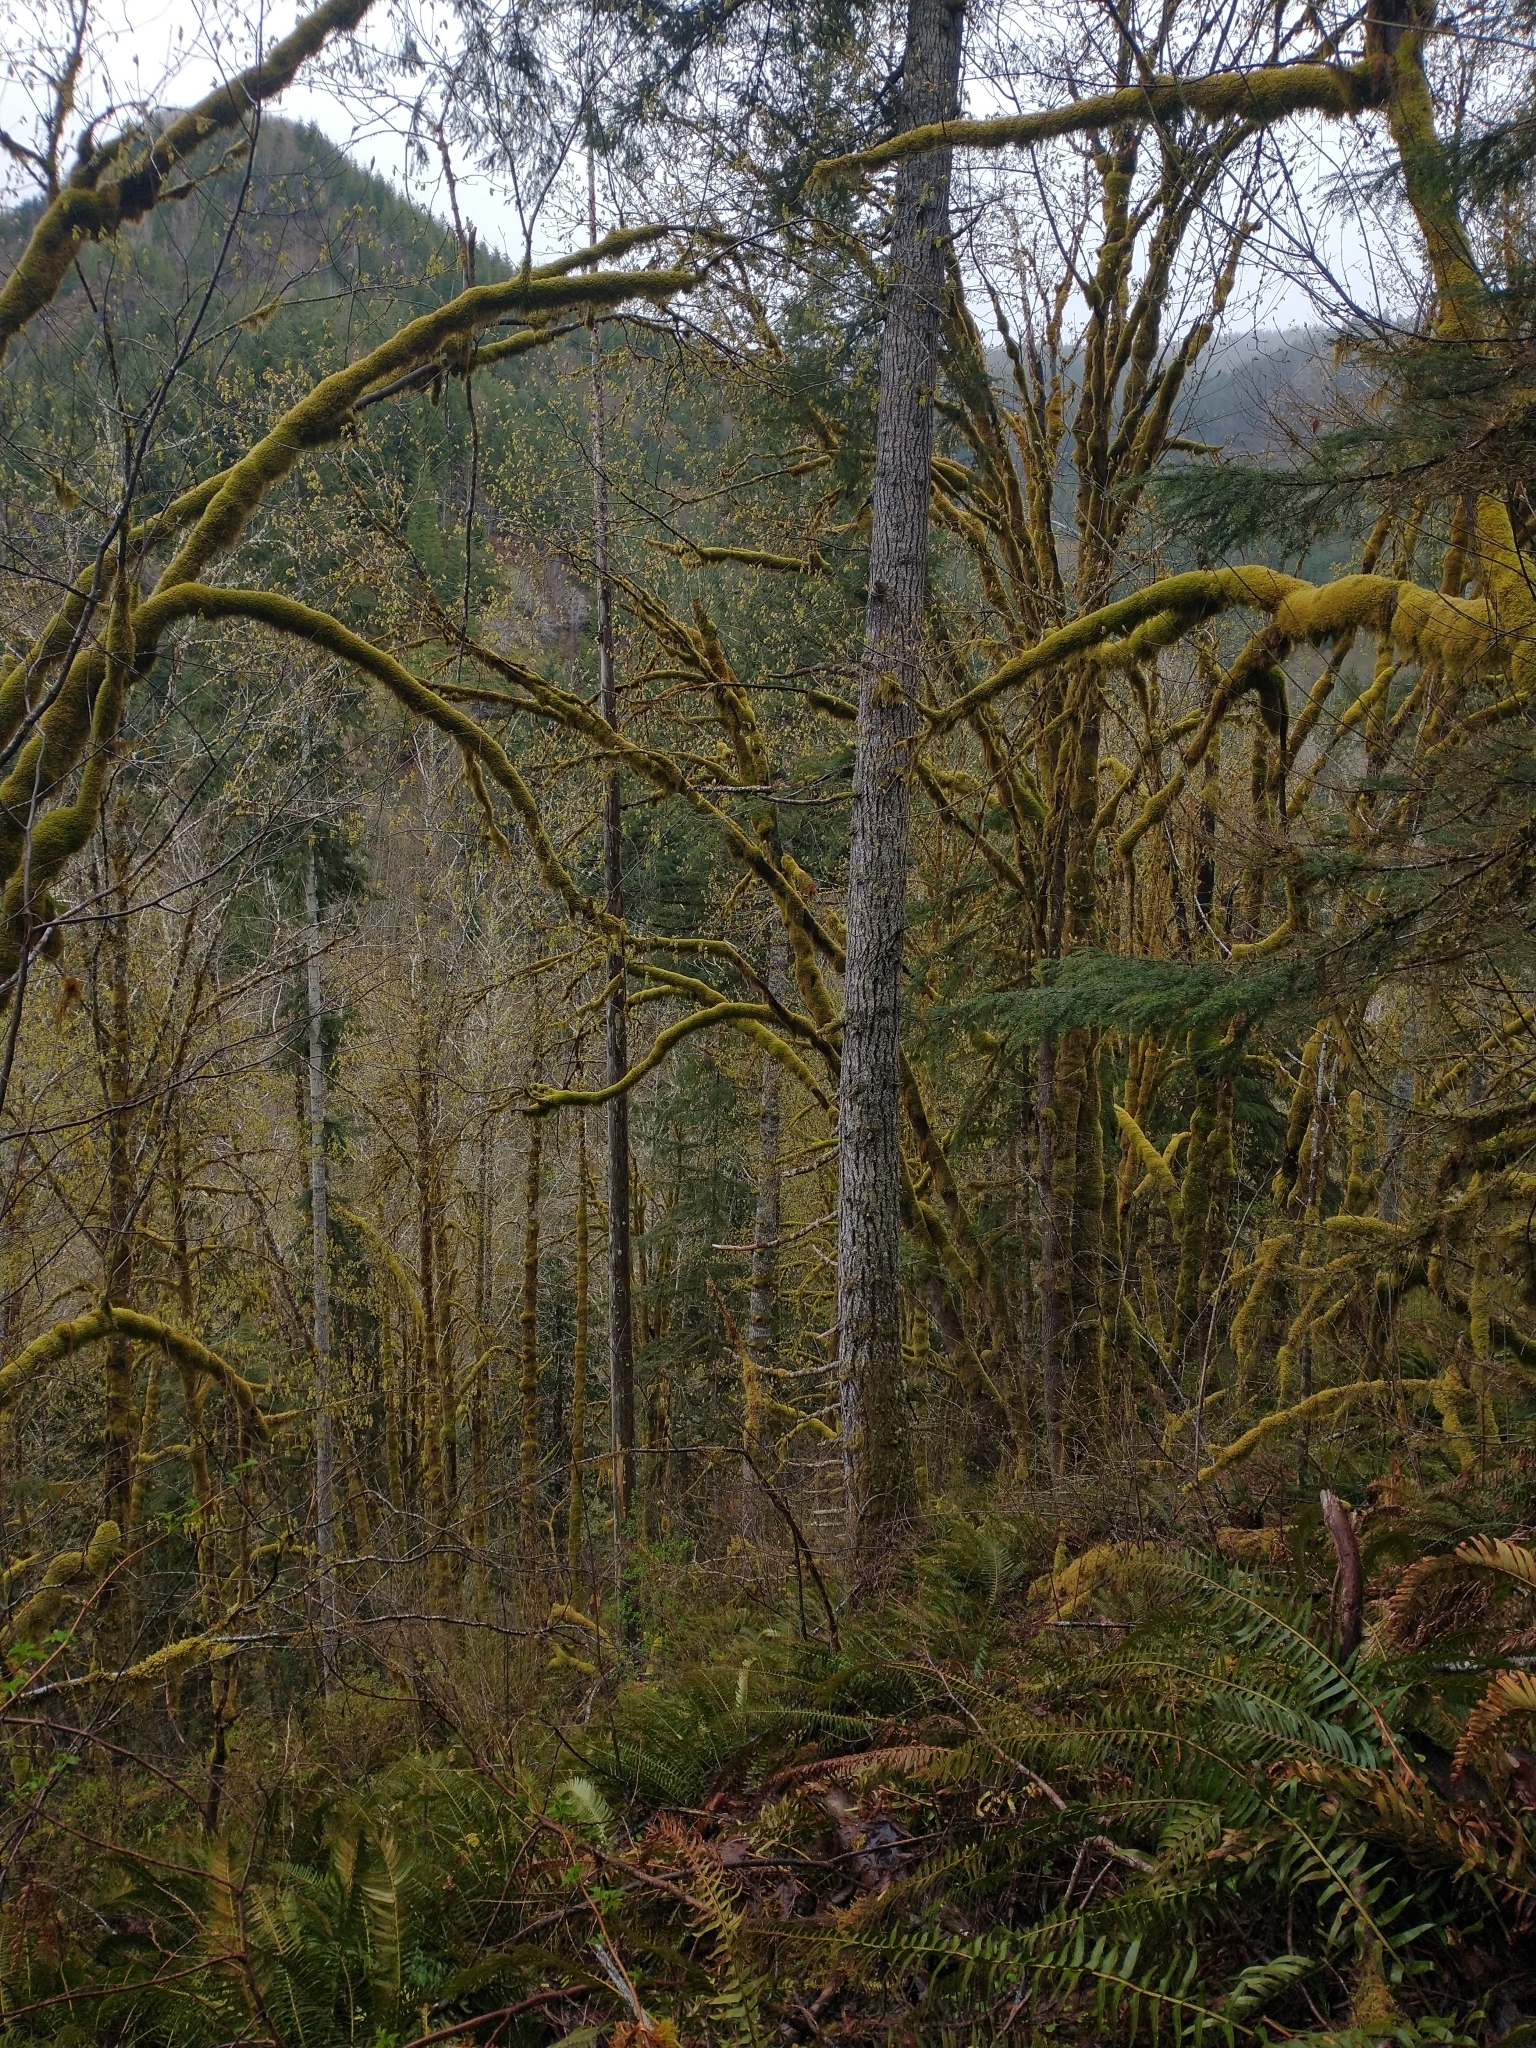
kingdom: Plantae
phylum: Tracheophyta
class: Magnoliopsida
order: Sapindales
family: Sapindaceae
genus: Acer
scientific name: Acer macrophyllum
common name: Oregon maple
